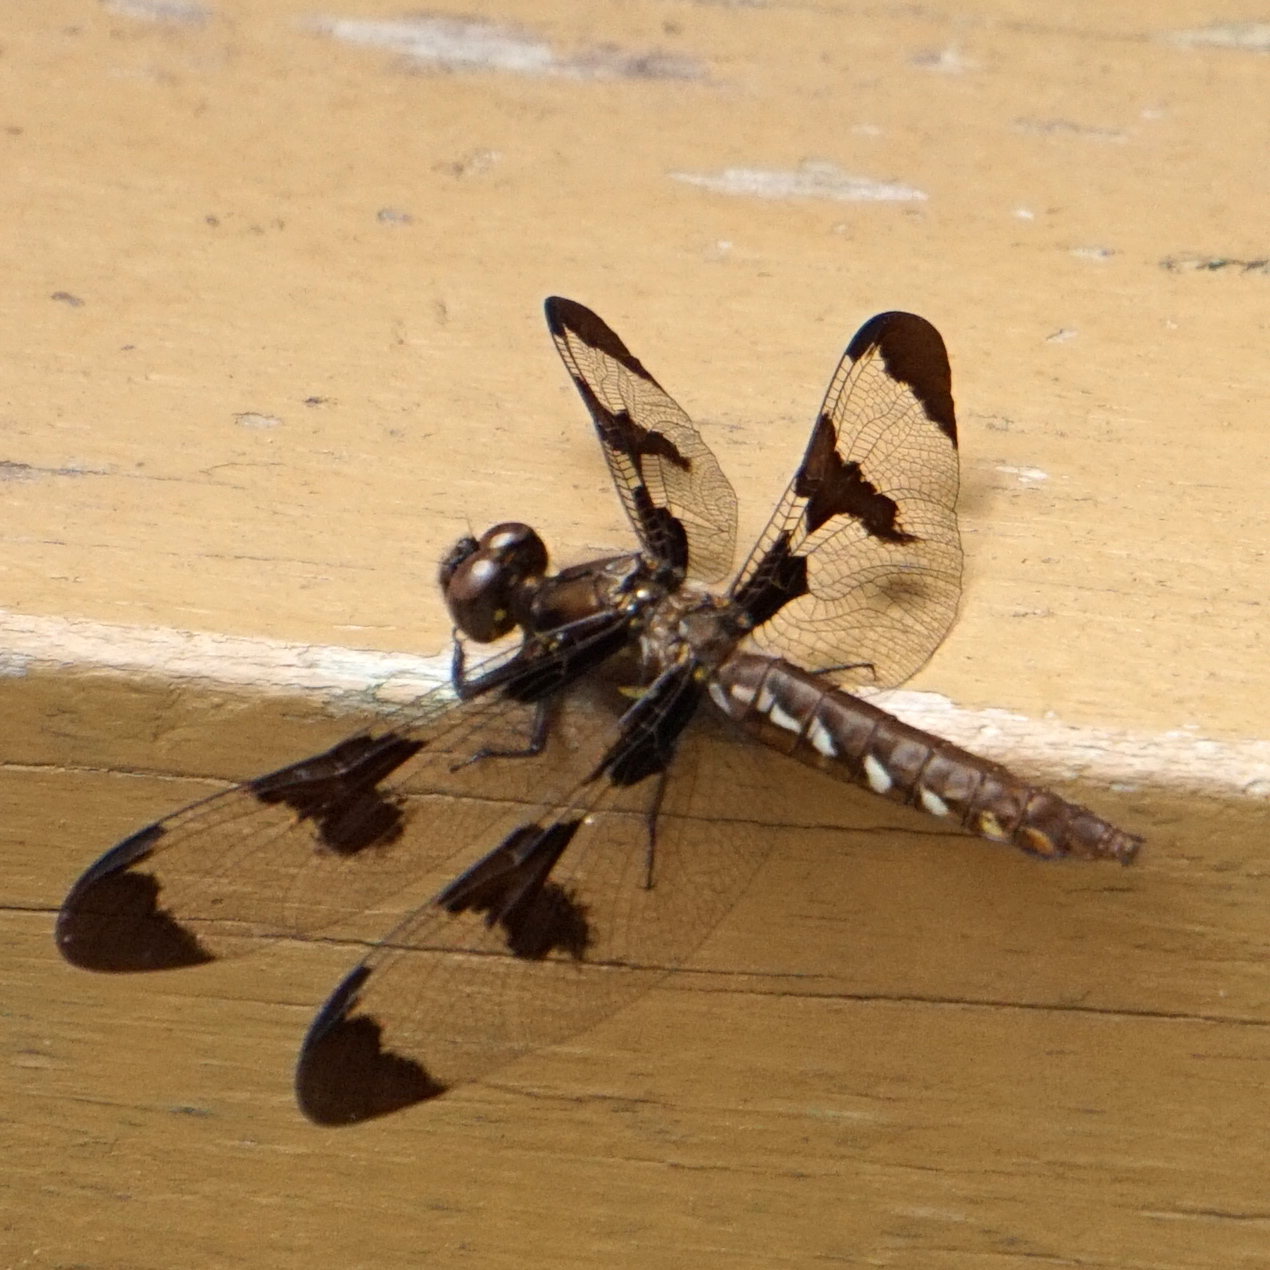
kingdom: Animalia
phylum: Arthropoda
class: Insecta
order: Odonata
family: Libellulidae
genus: Plathemis
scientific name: Plathemis lydia
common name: Common whitetail
